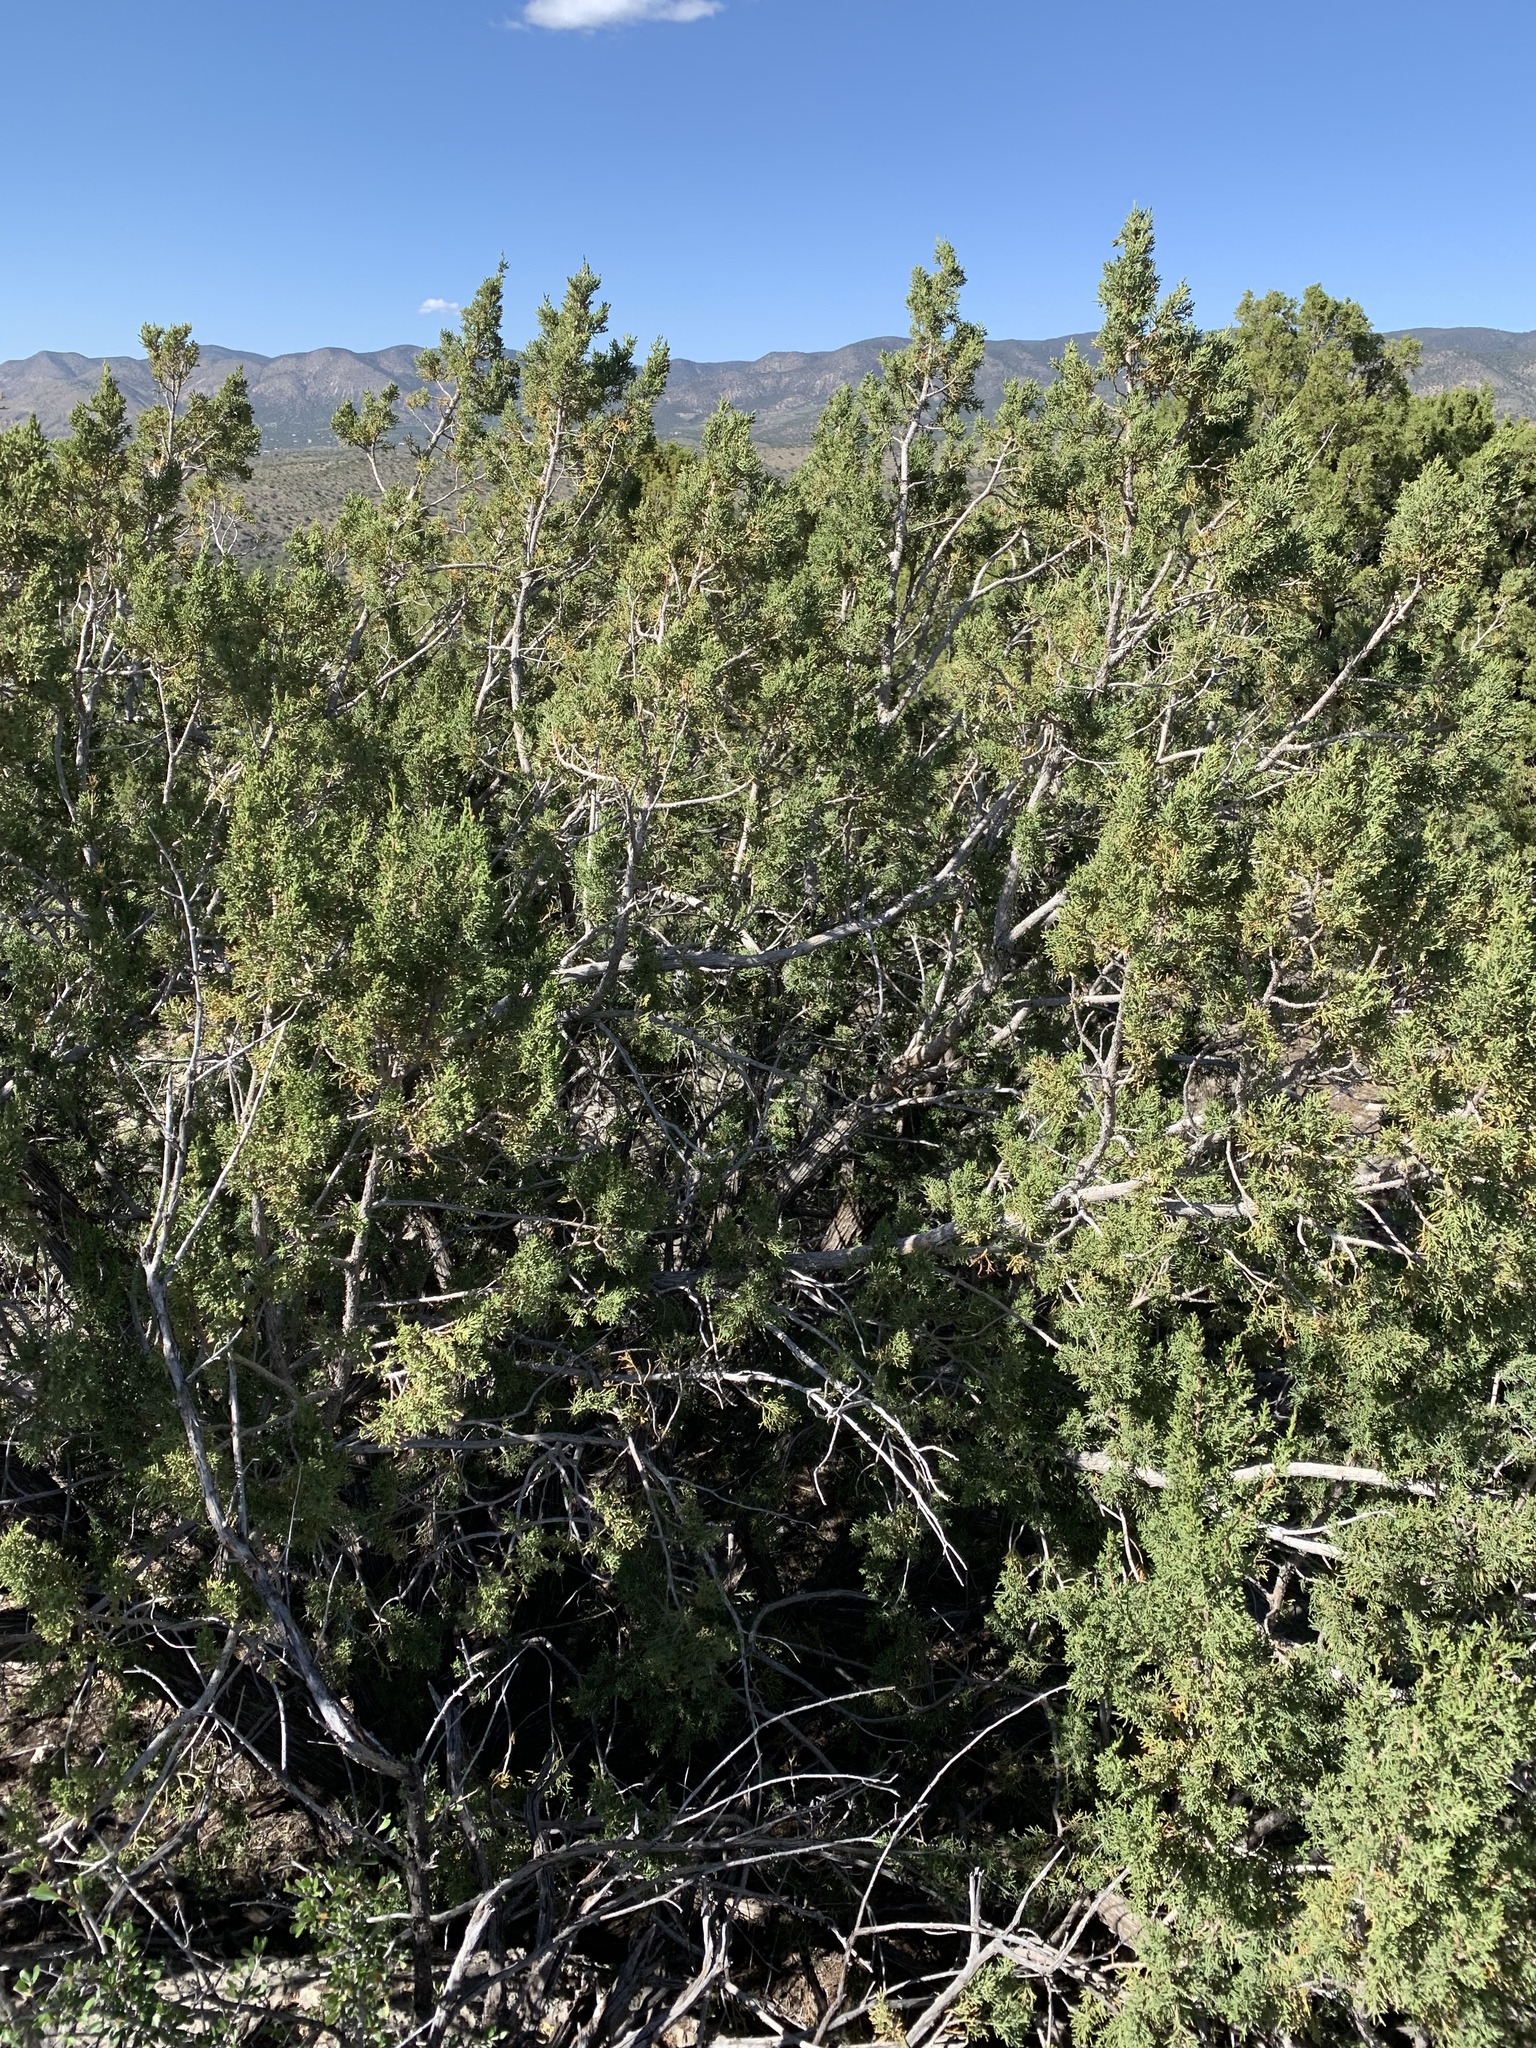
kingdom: Plantae
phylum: Tracheophyta
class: Pinopsida
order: Pinales
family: Cupressaceae
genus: Juniperus
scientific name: Juniperus monosperma
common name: One-seed juniper
